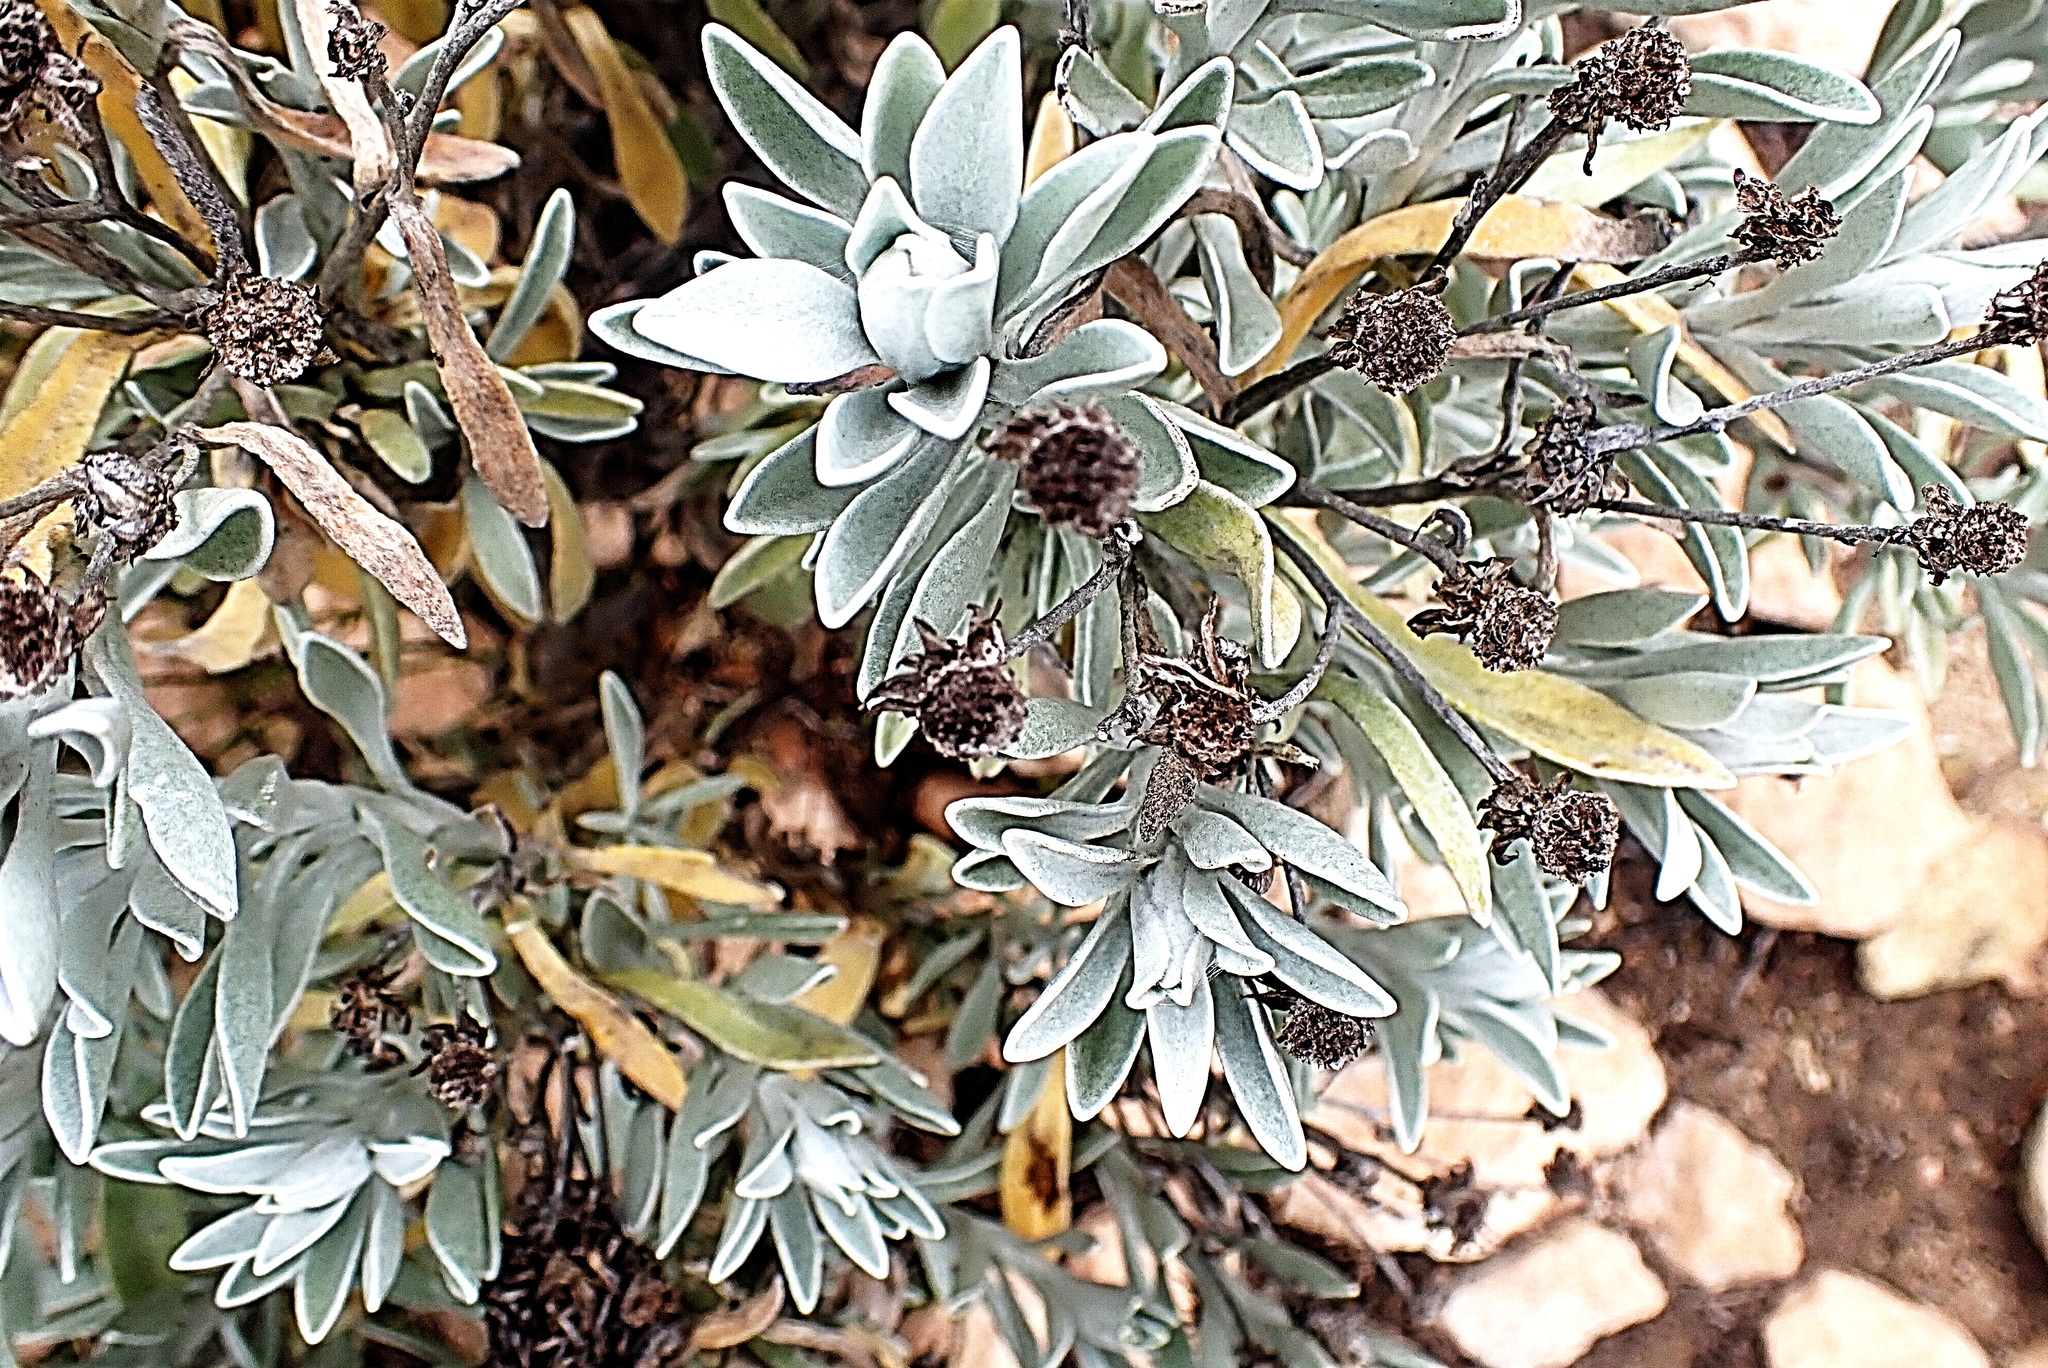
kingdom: Plantae
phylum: Tracheophyta
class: Magnoliopsida
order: Asterales
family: Asteraceae
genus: Syncarpha
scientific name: Syncarpha argyropsis
